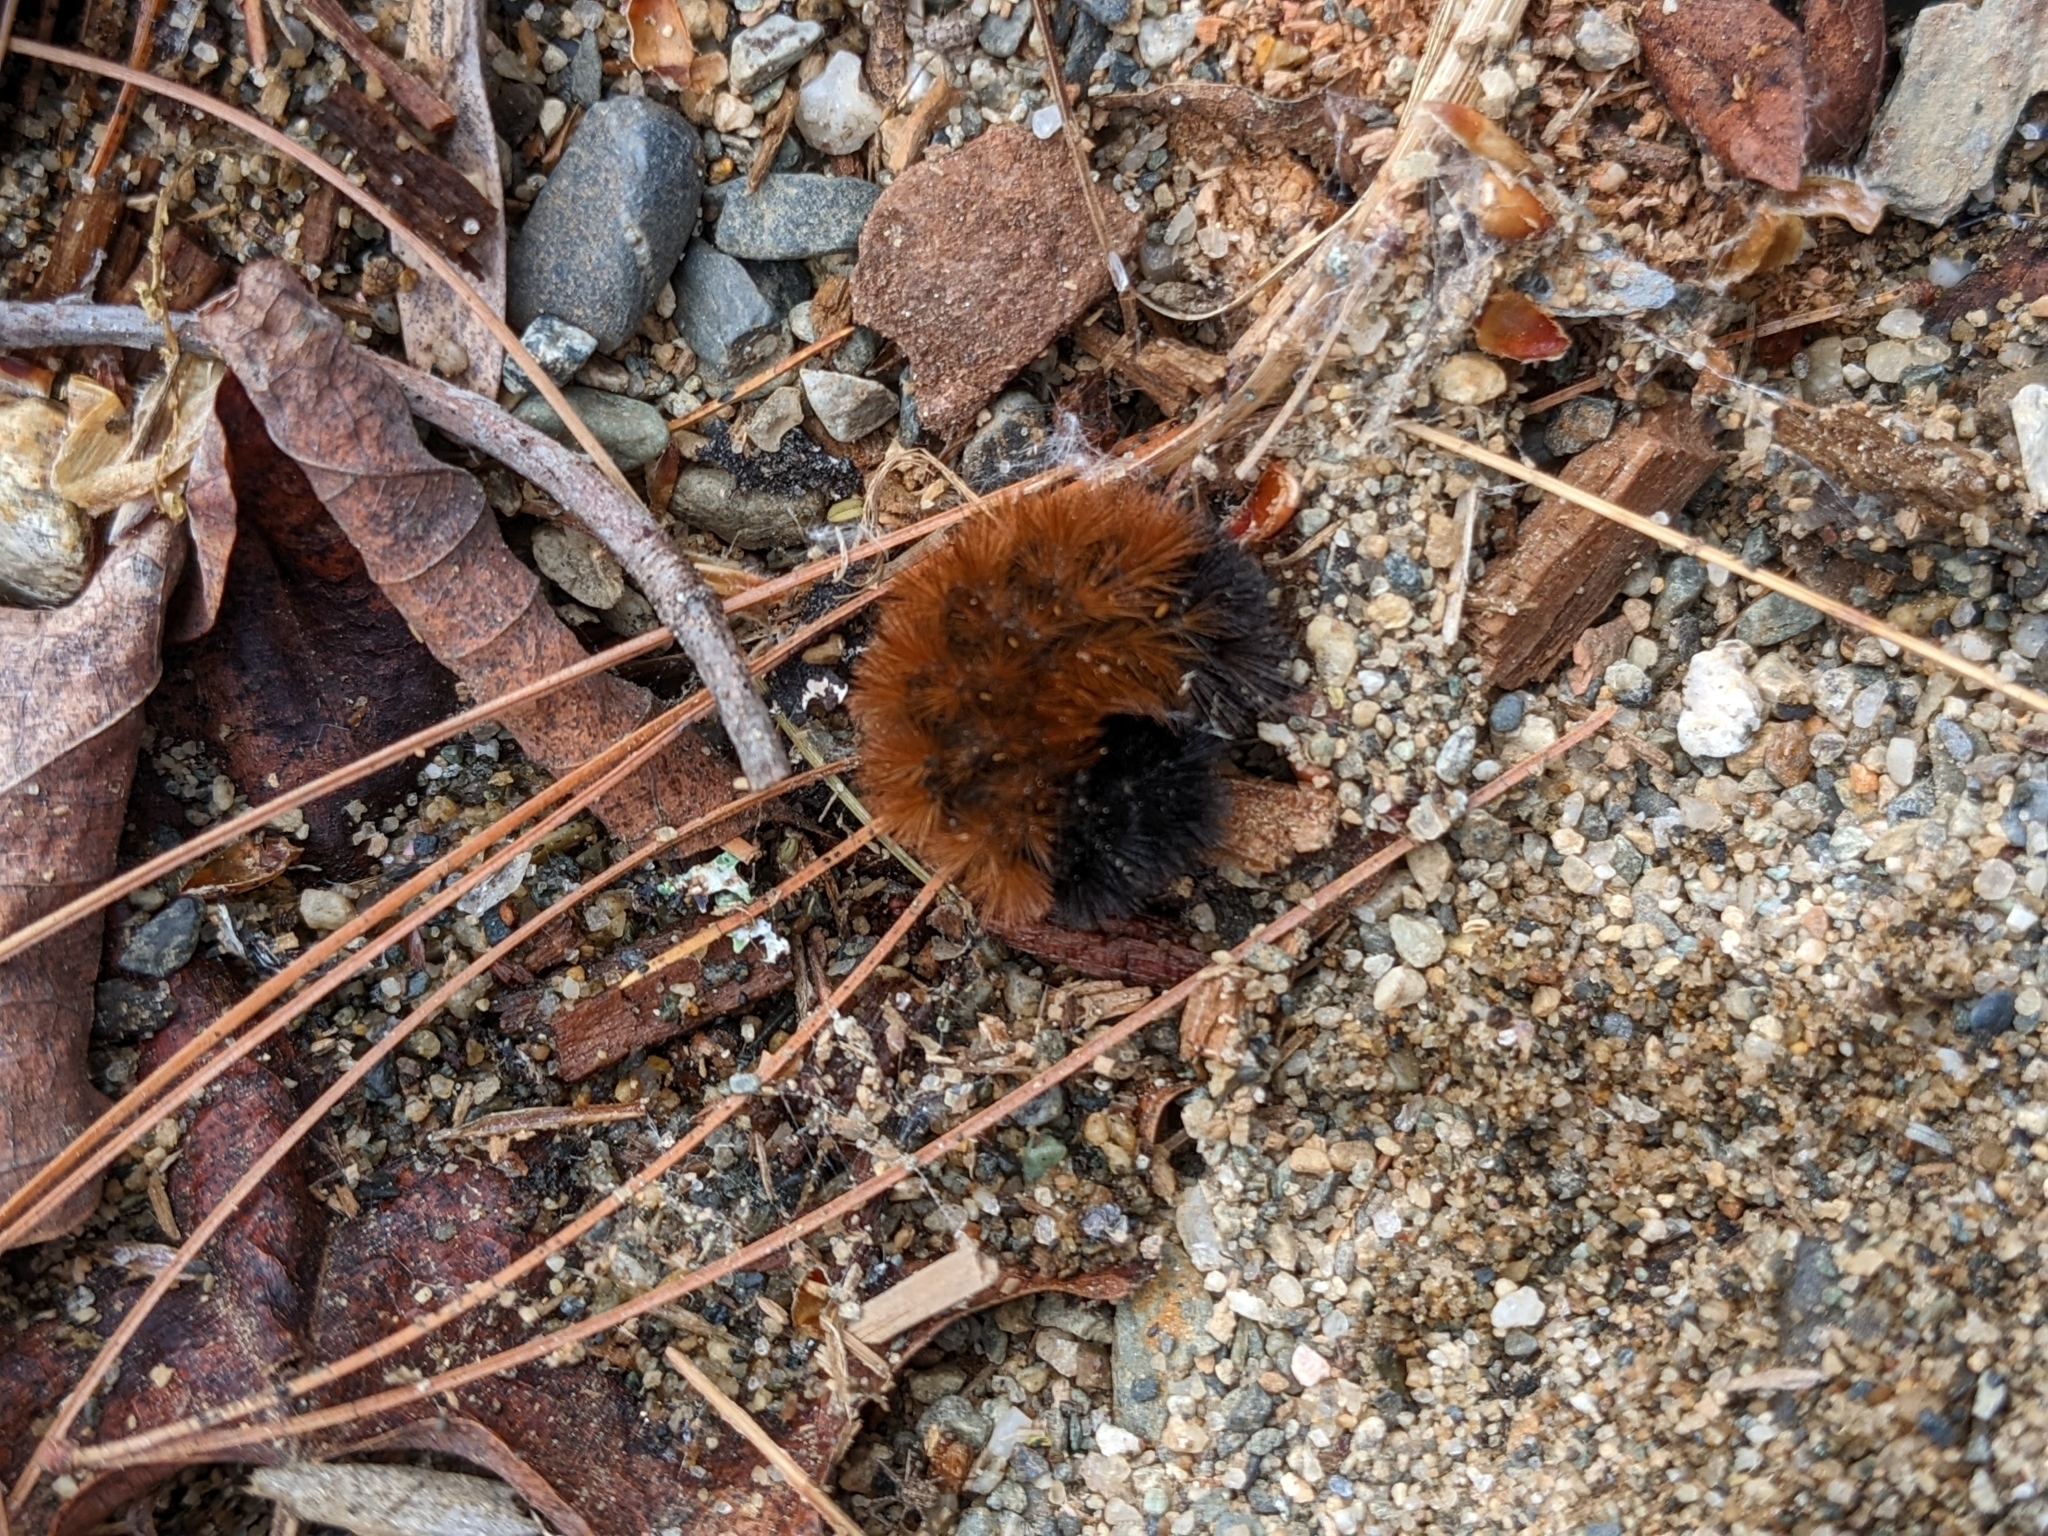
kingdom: Animalia
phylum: Arthropoda
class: Insecta
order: Lepidoptera
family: Erebidae
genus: Pyrrharctia
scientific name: Pyrrharctia isabella
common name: Isabella tiger moth
